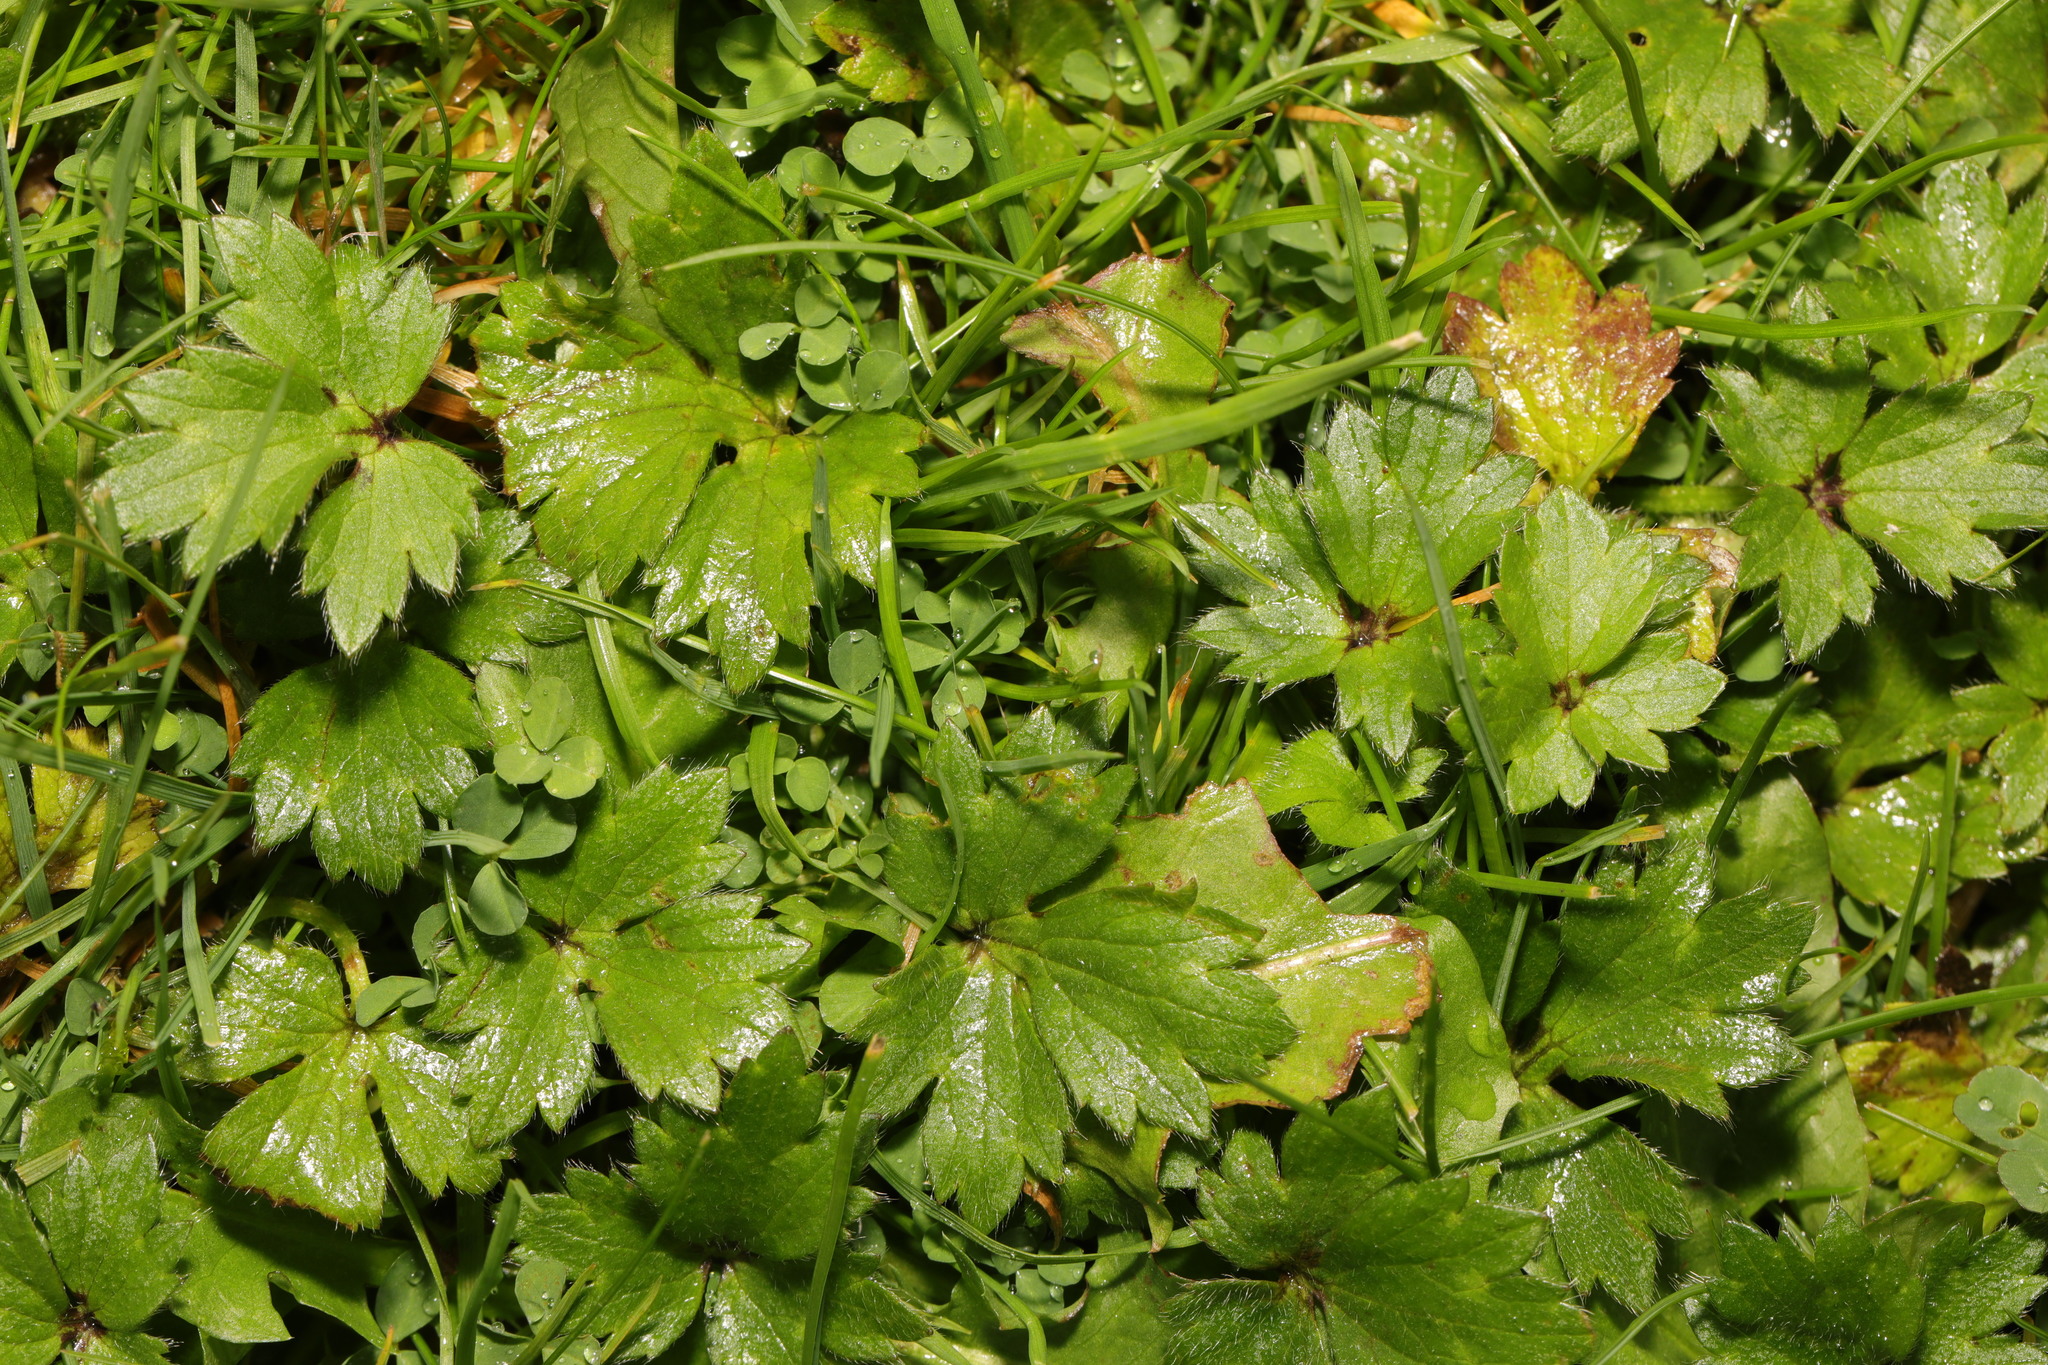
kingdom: Plantae
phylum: Tracheophyta
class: Magnoliopsida
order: Ranunculales
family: Ranunculaceae
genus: Ranunculus
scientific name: Ranunculus repens
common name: Creeping buttercup
